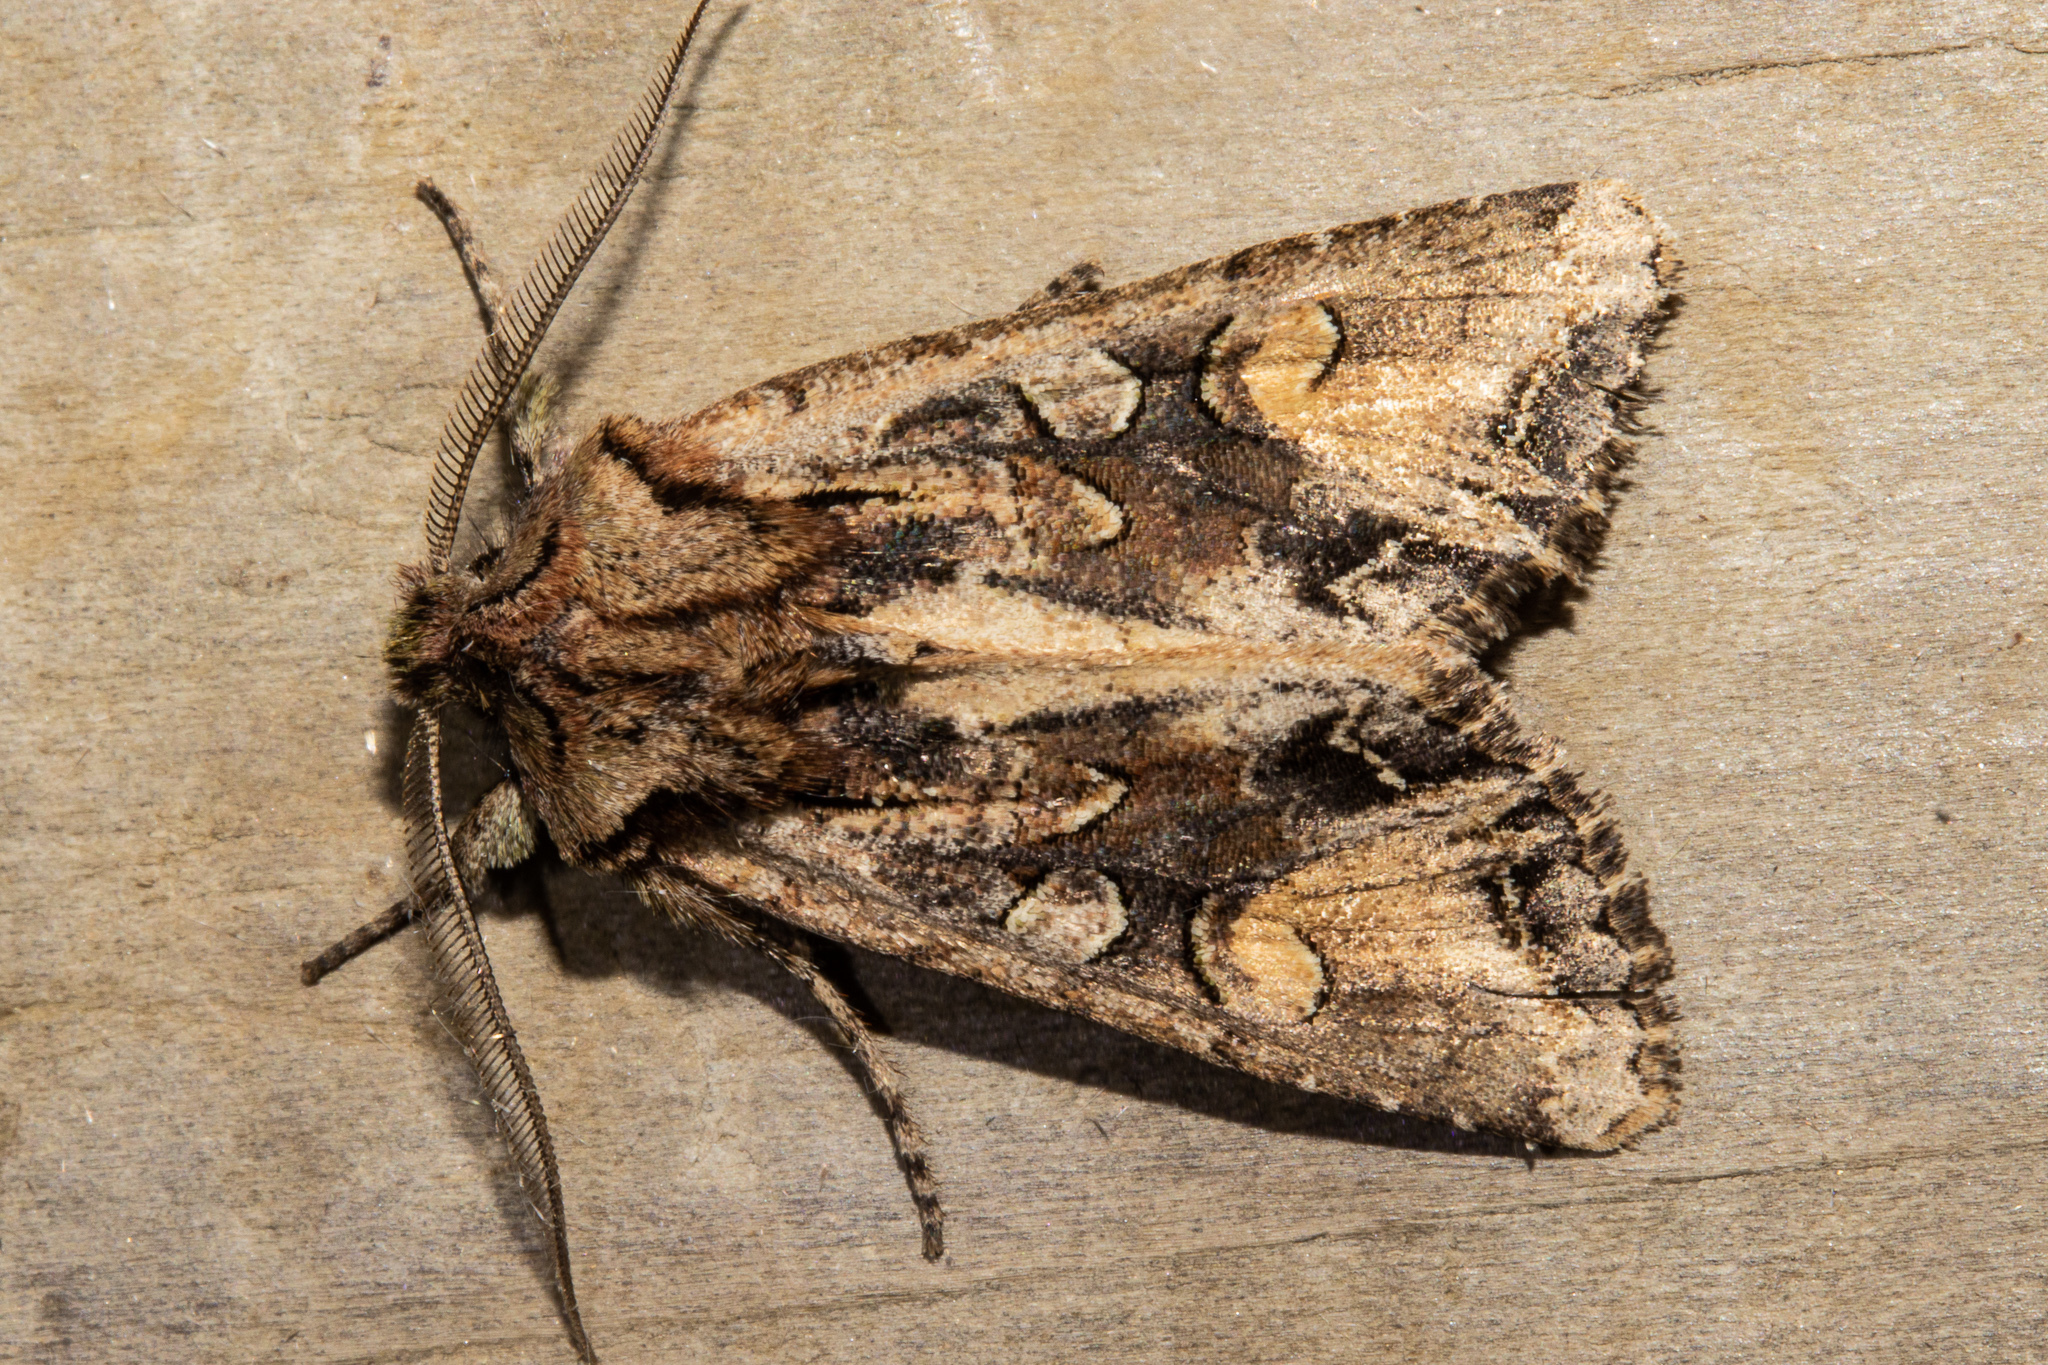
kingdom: Animalia
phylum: Arthropoda
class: Insecta
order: Lepidoptera
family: Noctuidae
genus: Ichneutica
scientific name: Ichneutica
